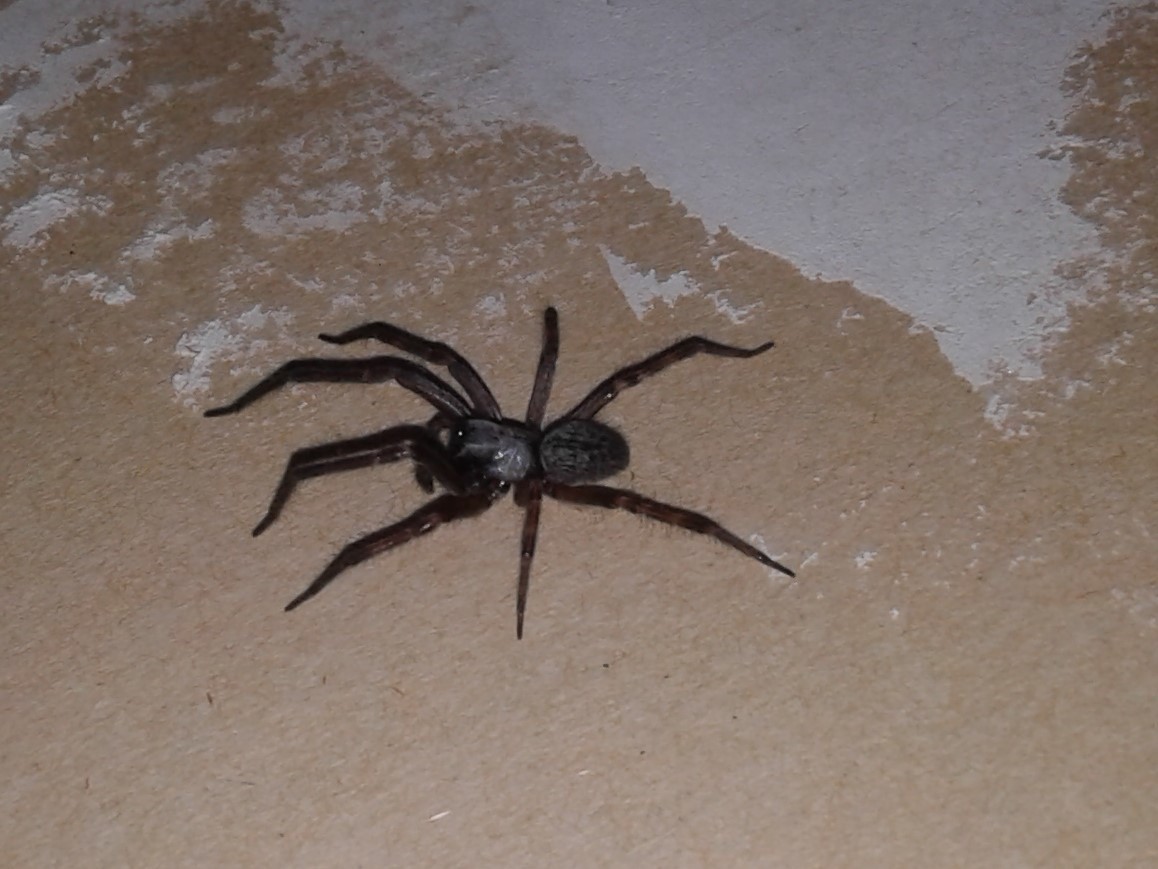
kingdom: Animalia
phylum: Arthropoda
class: Arachnida
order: Araneae
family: Desidae
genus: Badumna
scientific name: Badumna
